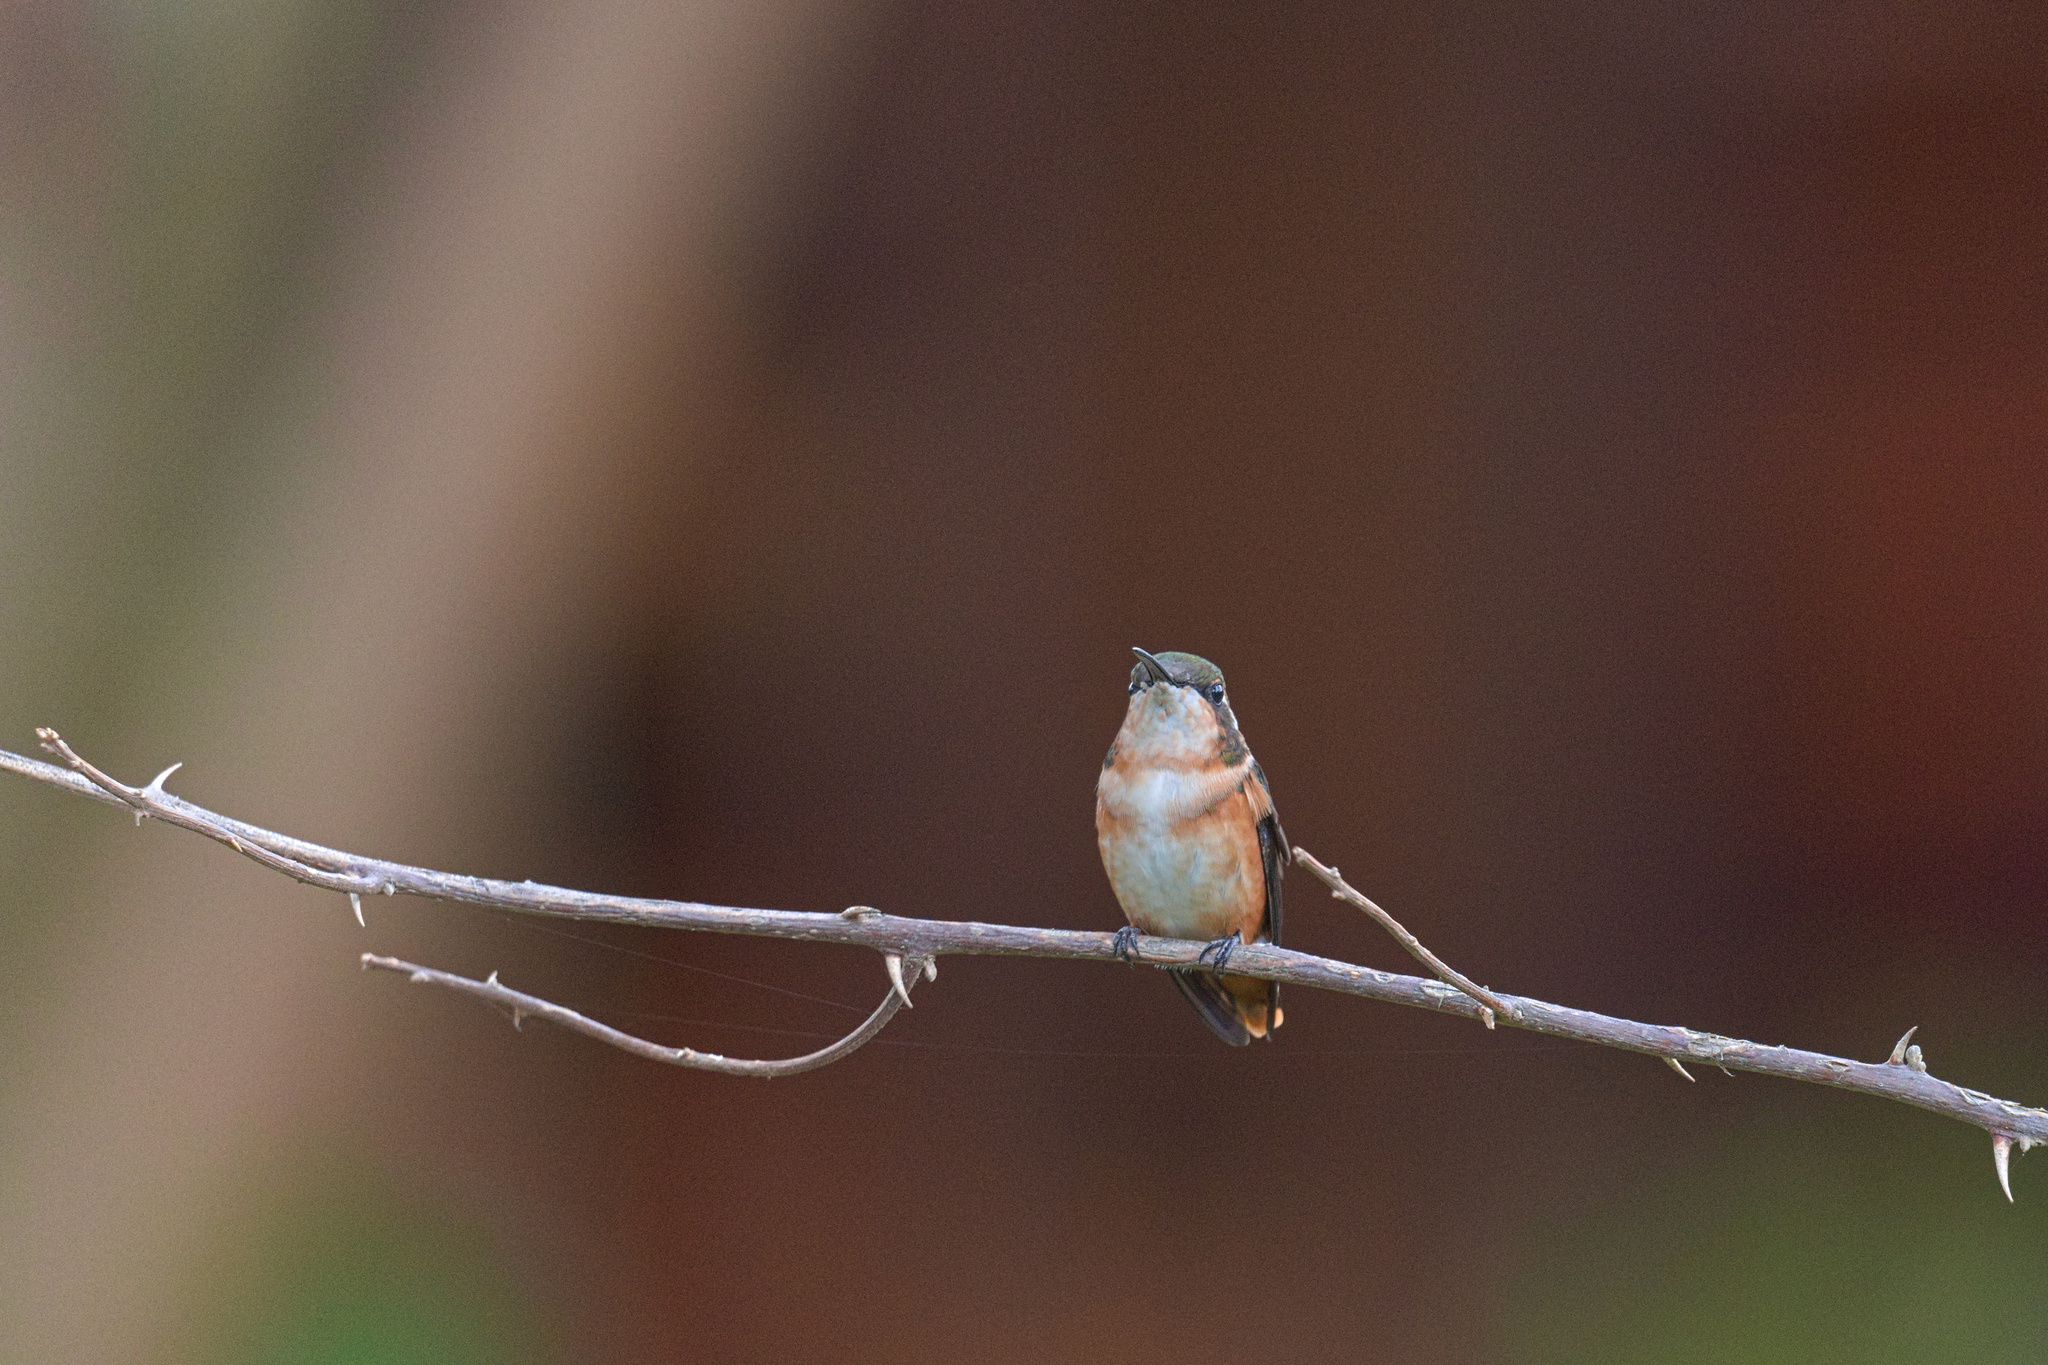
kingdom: Animalia
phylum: Chordata
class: Aves
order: Apodiformes
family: Trochilidae
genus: Chaetocercus
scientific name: Chaetocercus mulsant
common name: White-bellied woodstar
